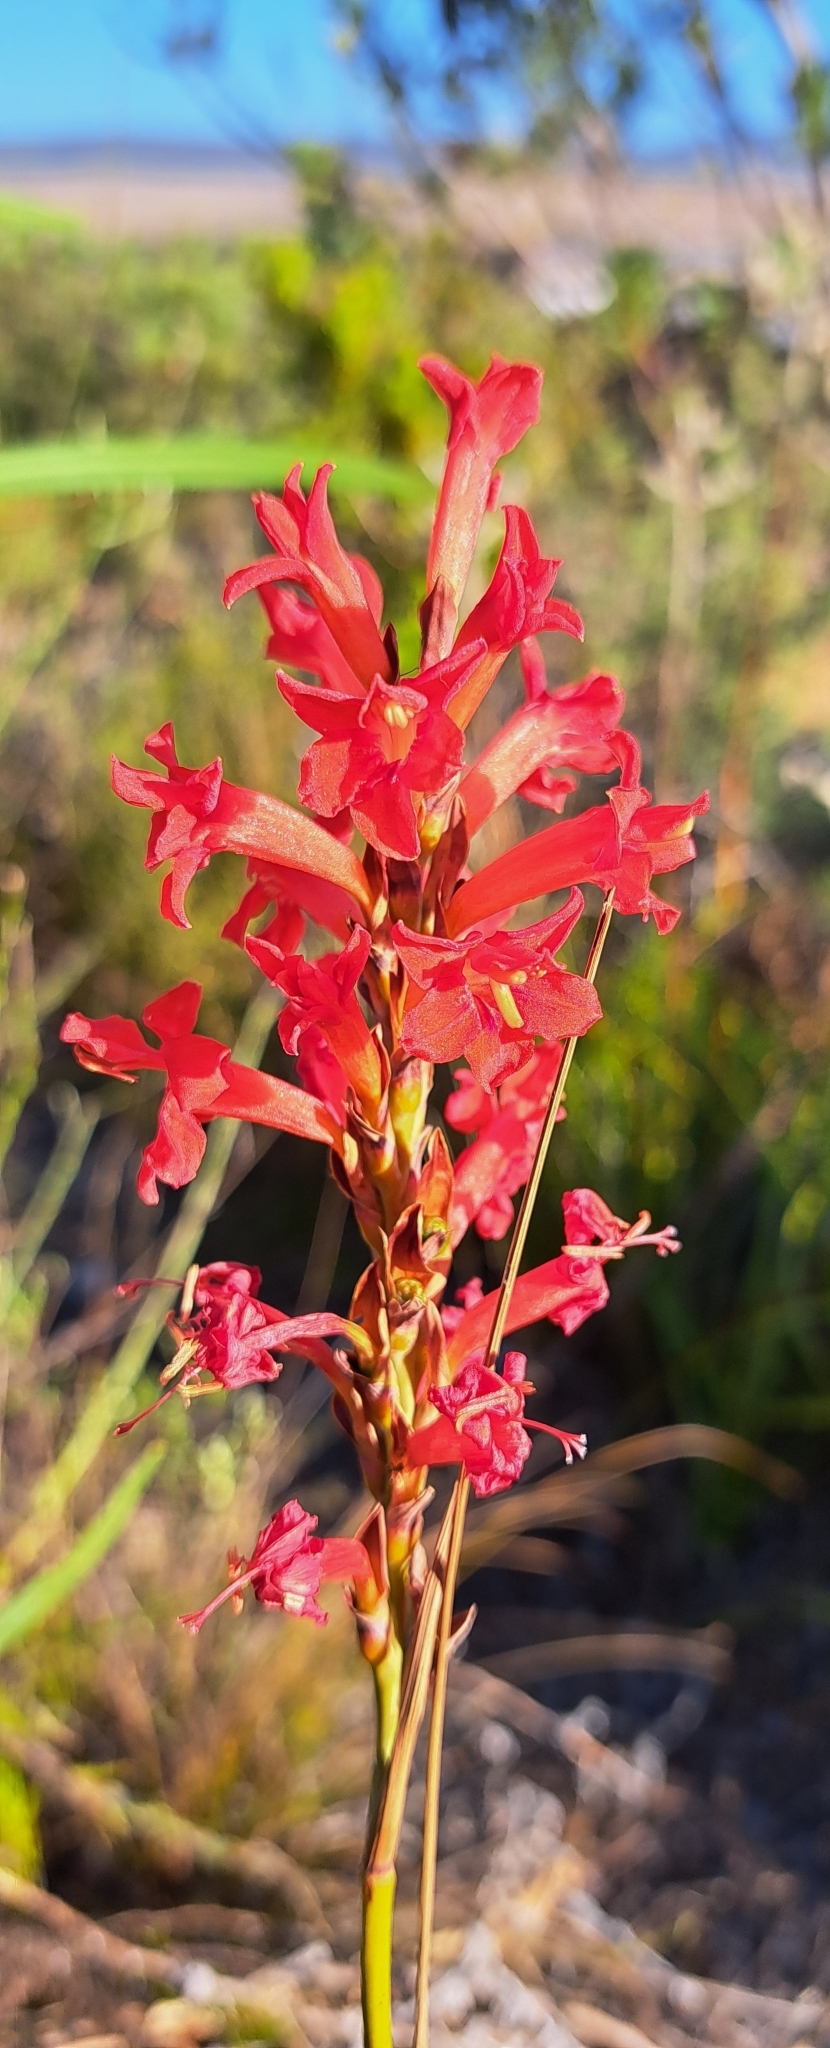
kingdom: Plantae
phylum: Tracheophyta
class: Liliopsida
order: Asparagales
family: Iridaceae
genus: Tritoniopsis
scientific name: Tritoniopsis triticea
